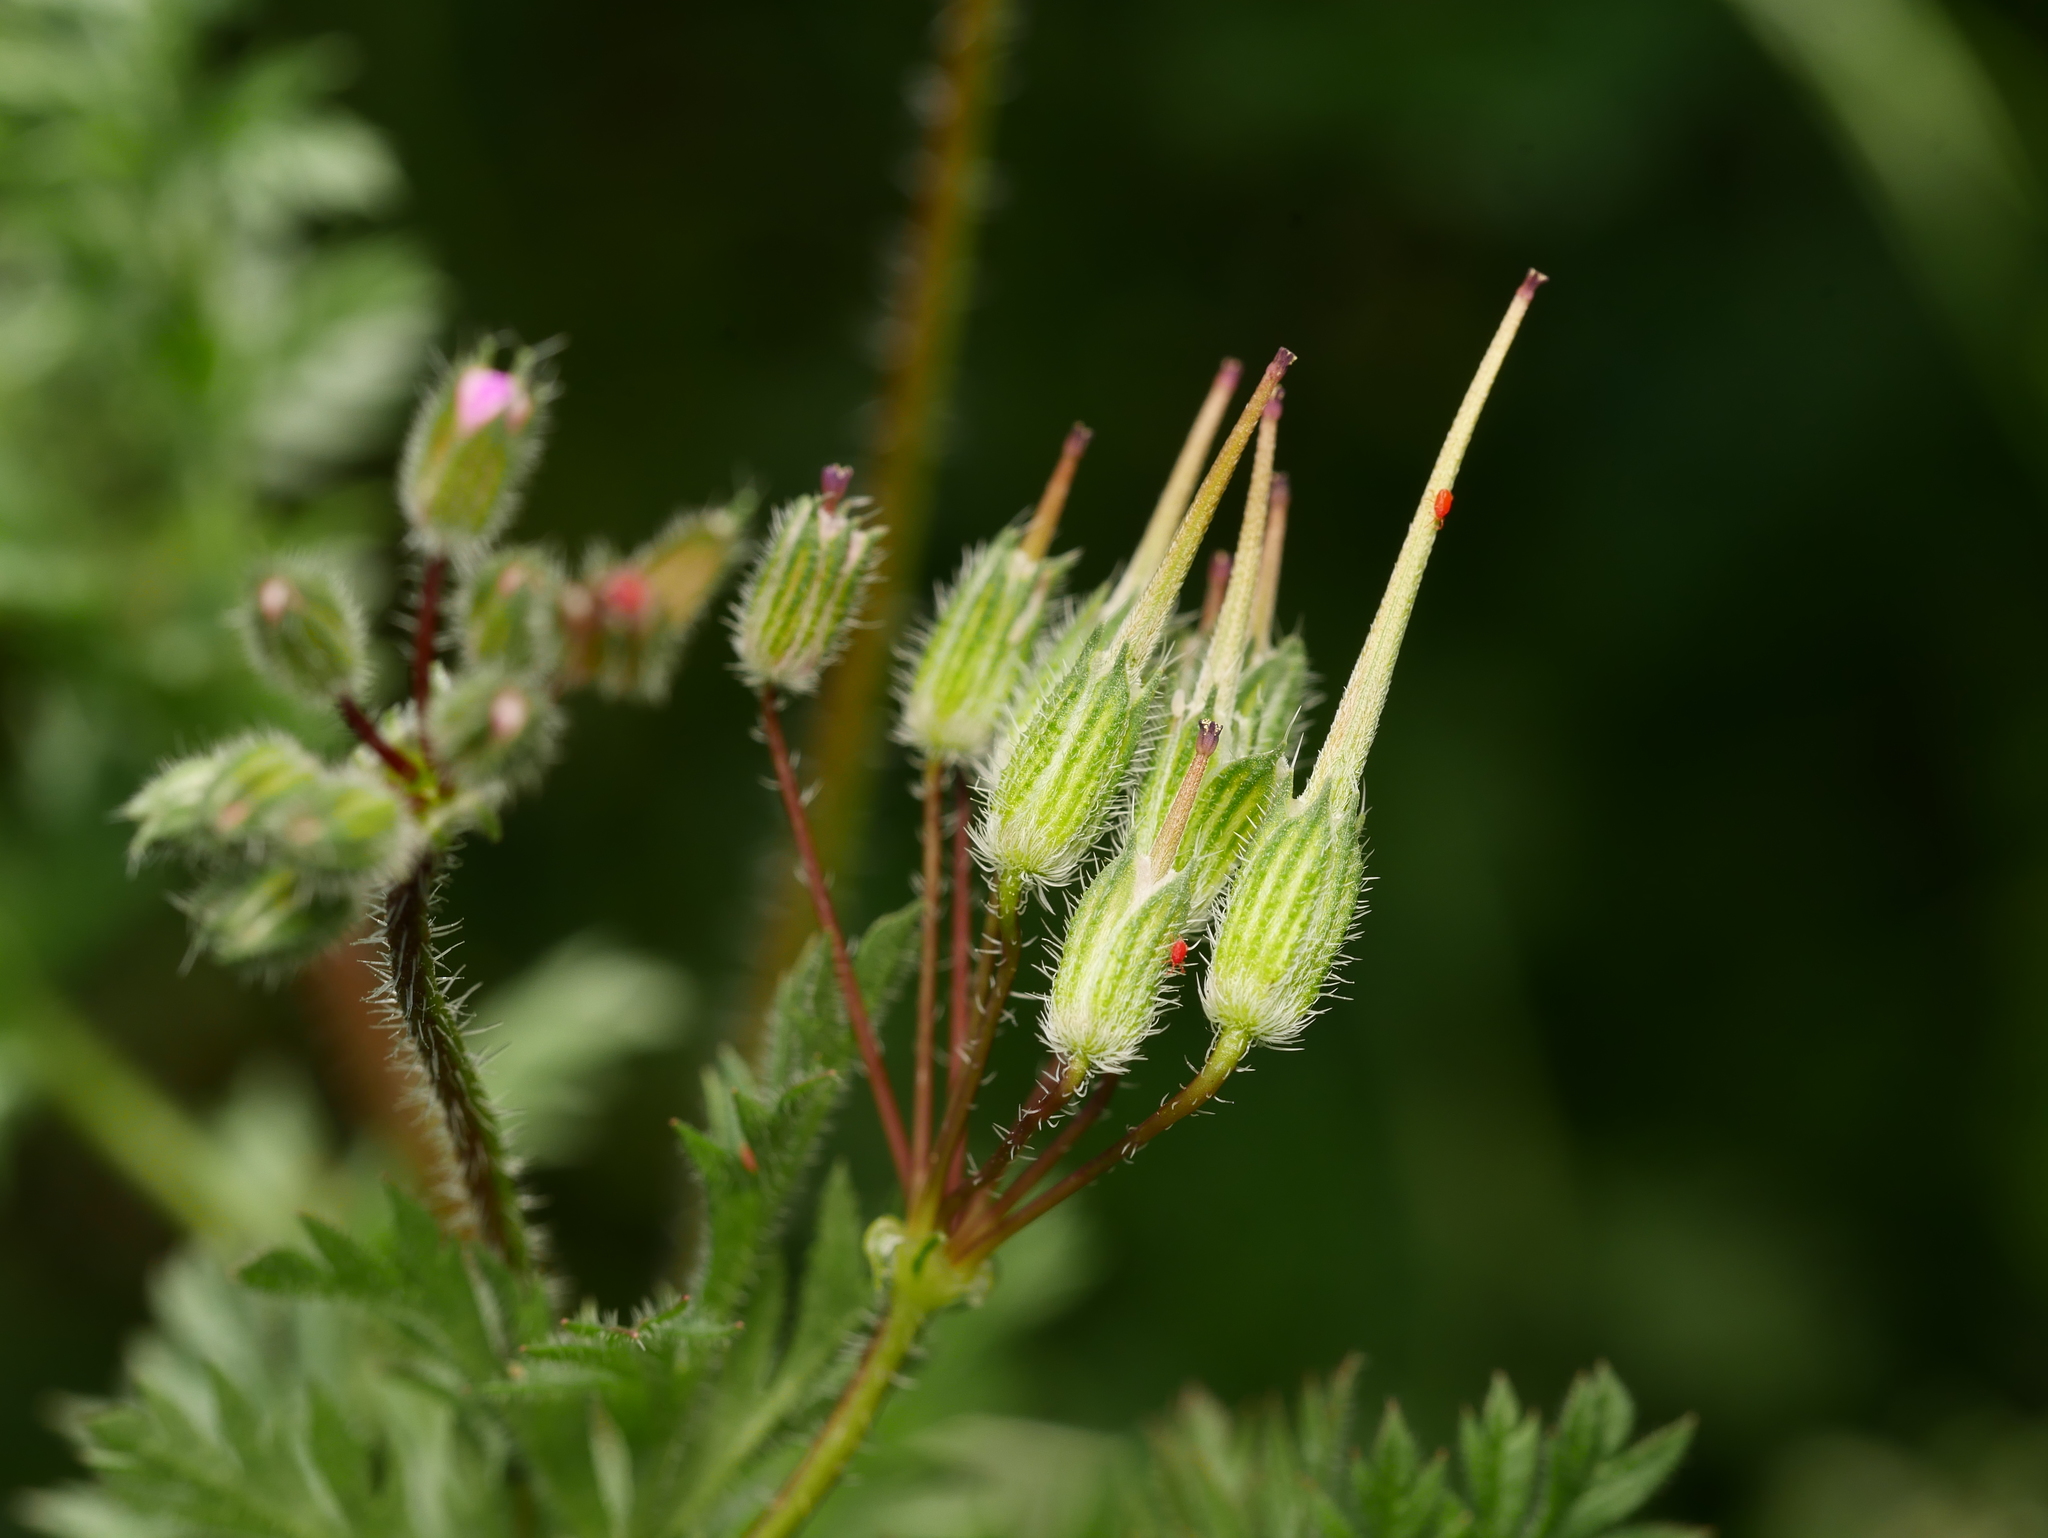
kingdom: Plantae
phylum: Tracheophyta
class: Magnoliopsida
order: Geraniales
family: Geraniaceae
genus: Erodium
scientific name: Erodium cicutarium
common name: Common stork's-bill
